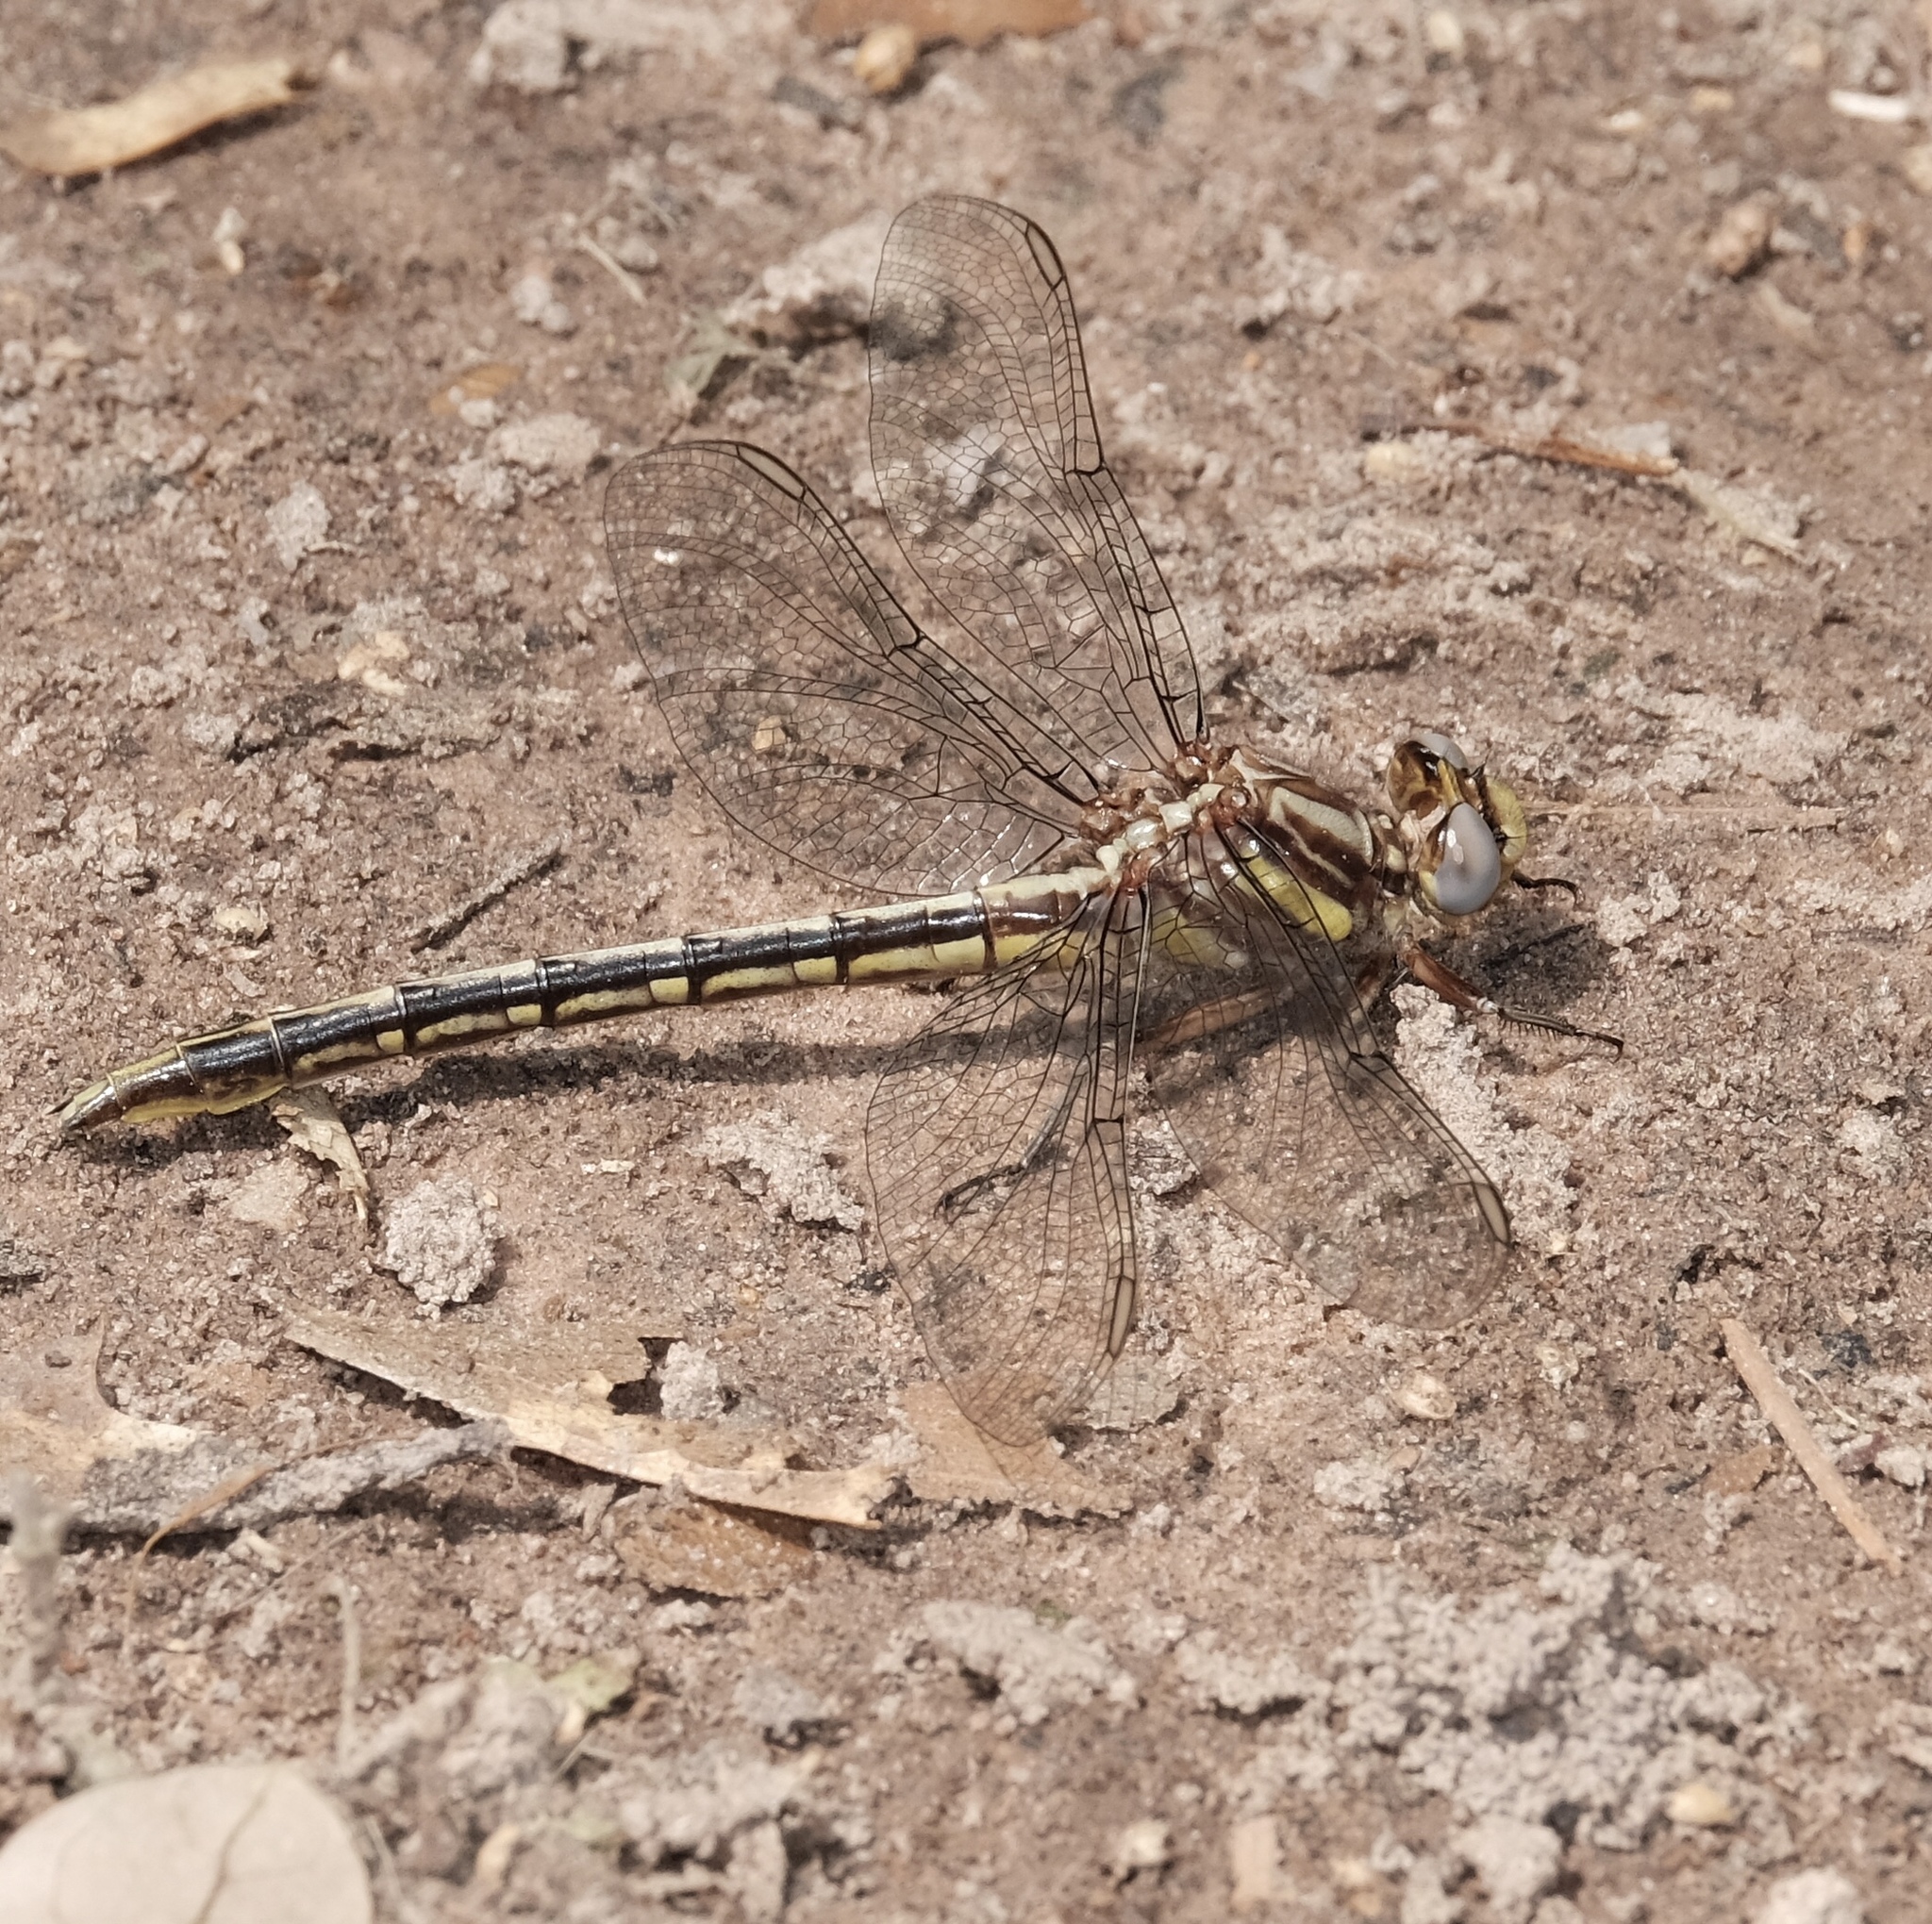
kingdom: Animalia
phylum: Arthropoda
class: Insecta
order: Odonata
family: Gomphidae
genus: Phanogomphus
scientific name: Phanogomphus oklahomensis
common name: Oklahoma clubtail
